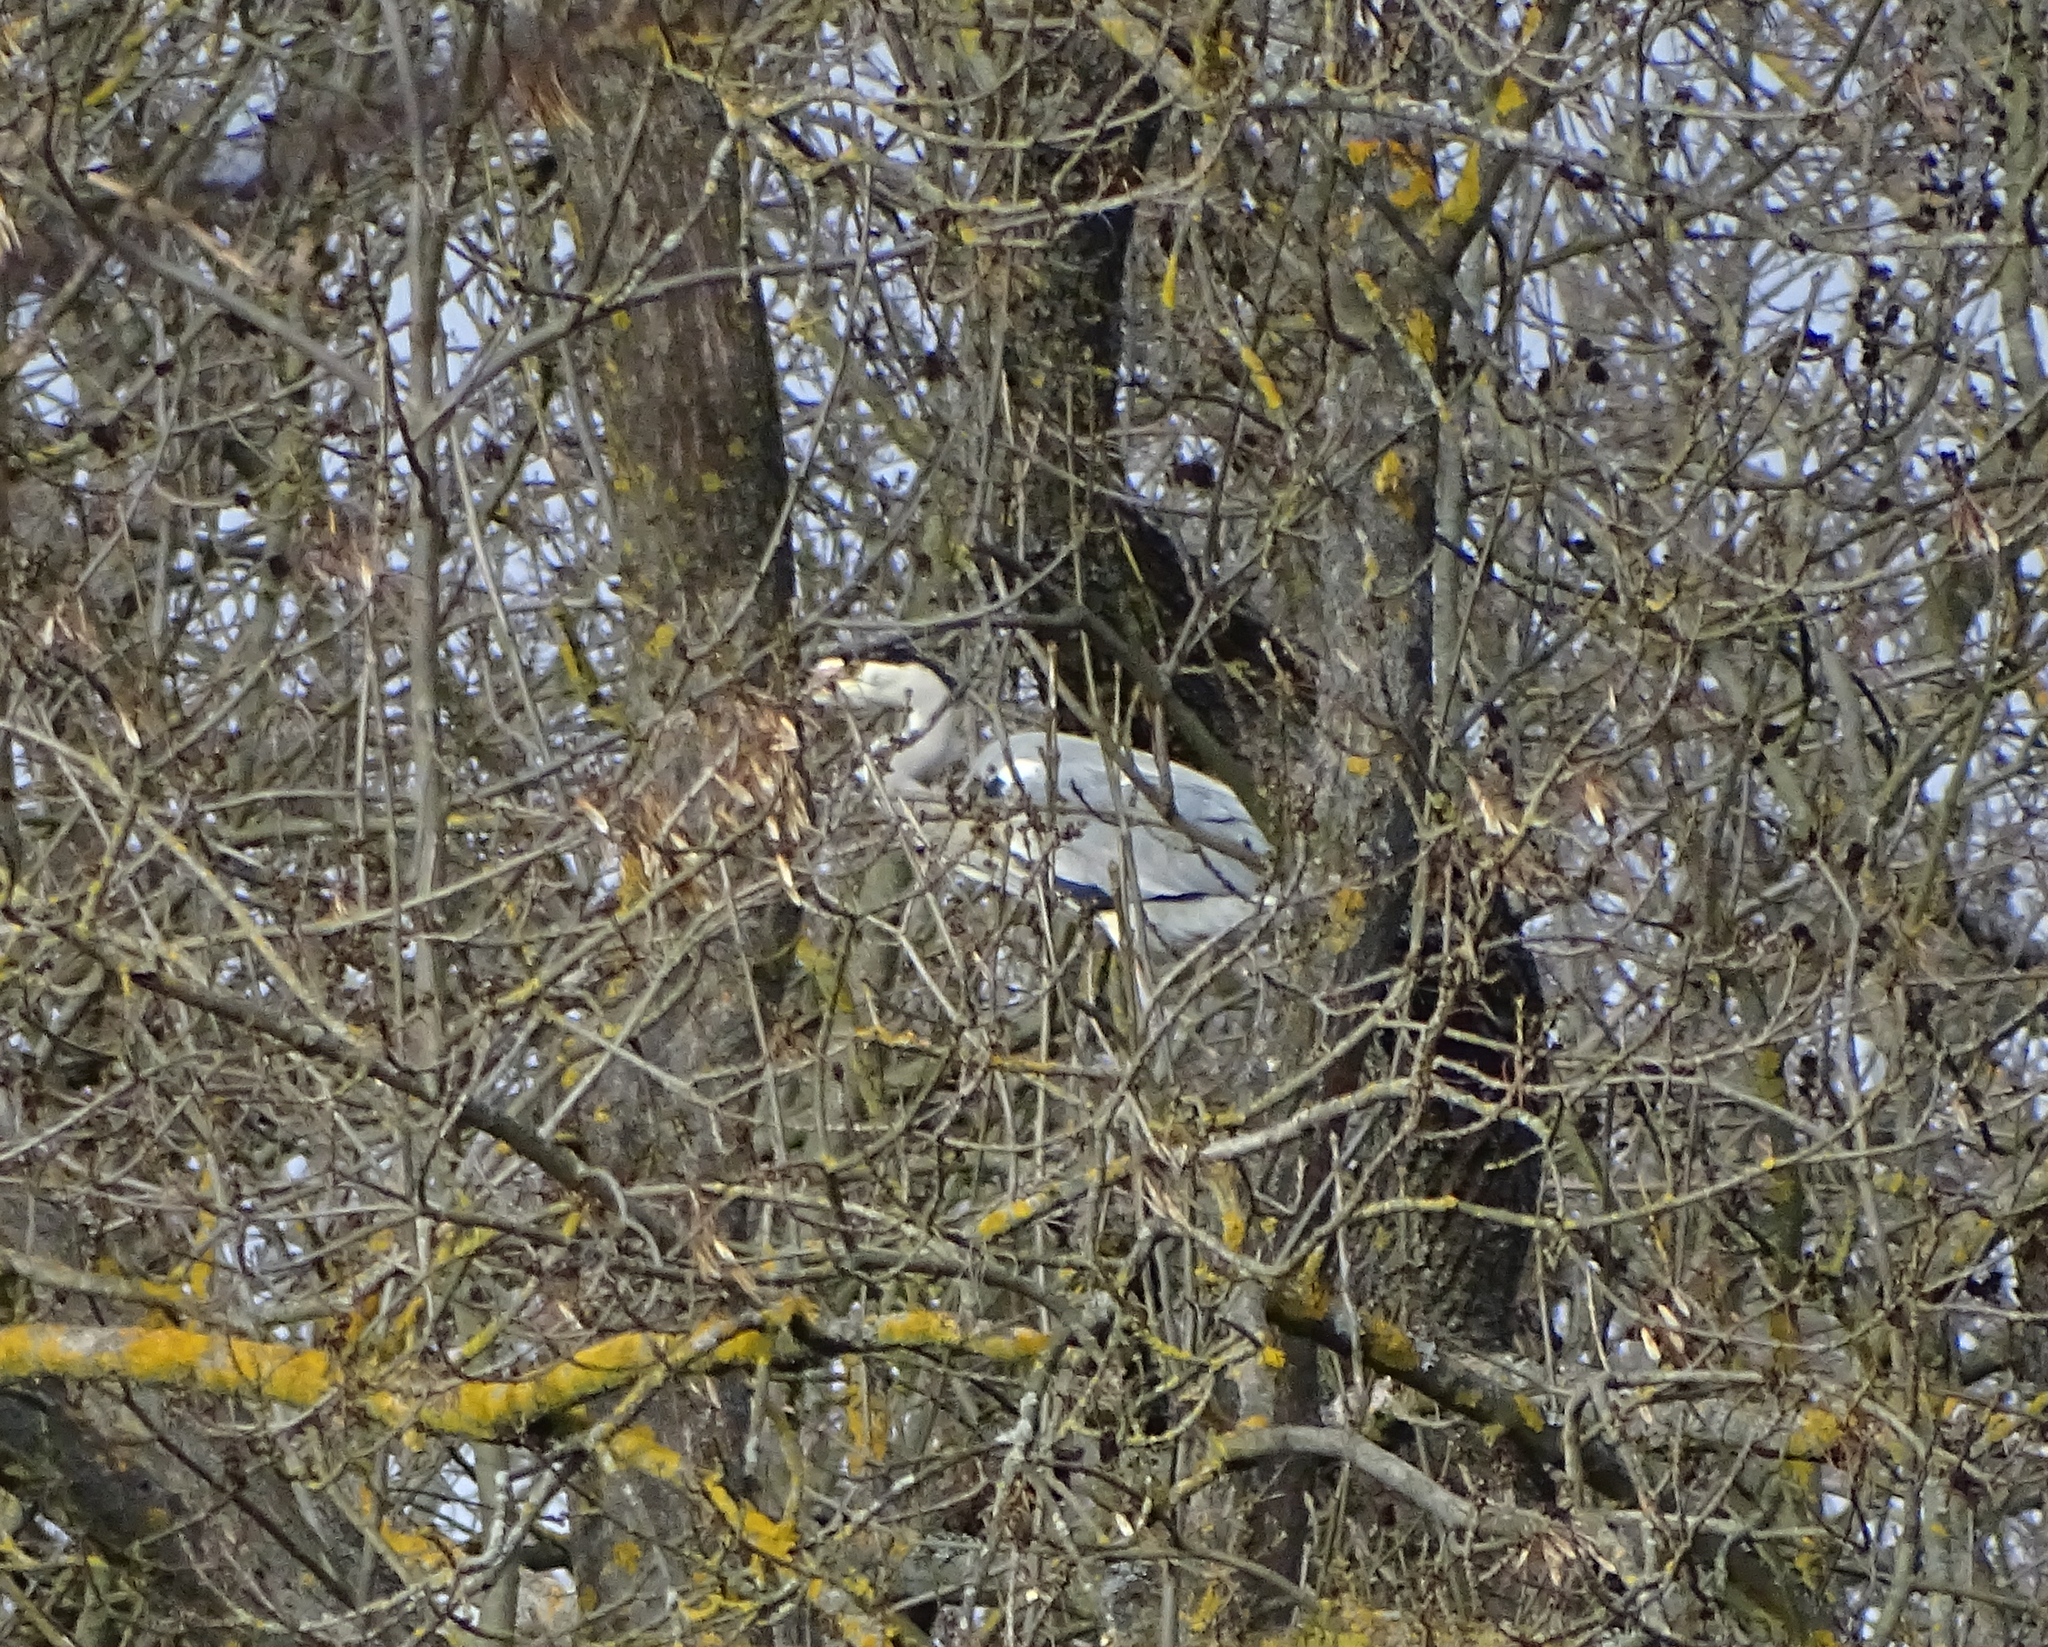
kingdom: Animalia
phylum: Chordata
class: Aves
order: Pelecaniformes
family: Ardeidae
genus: Ardea
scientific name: Ardea cinerea
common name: Grey heron
